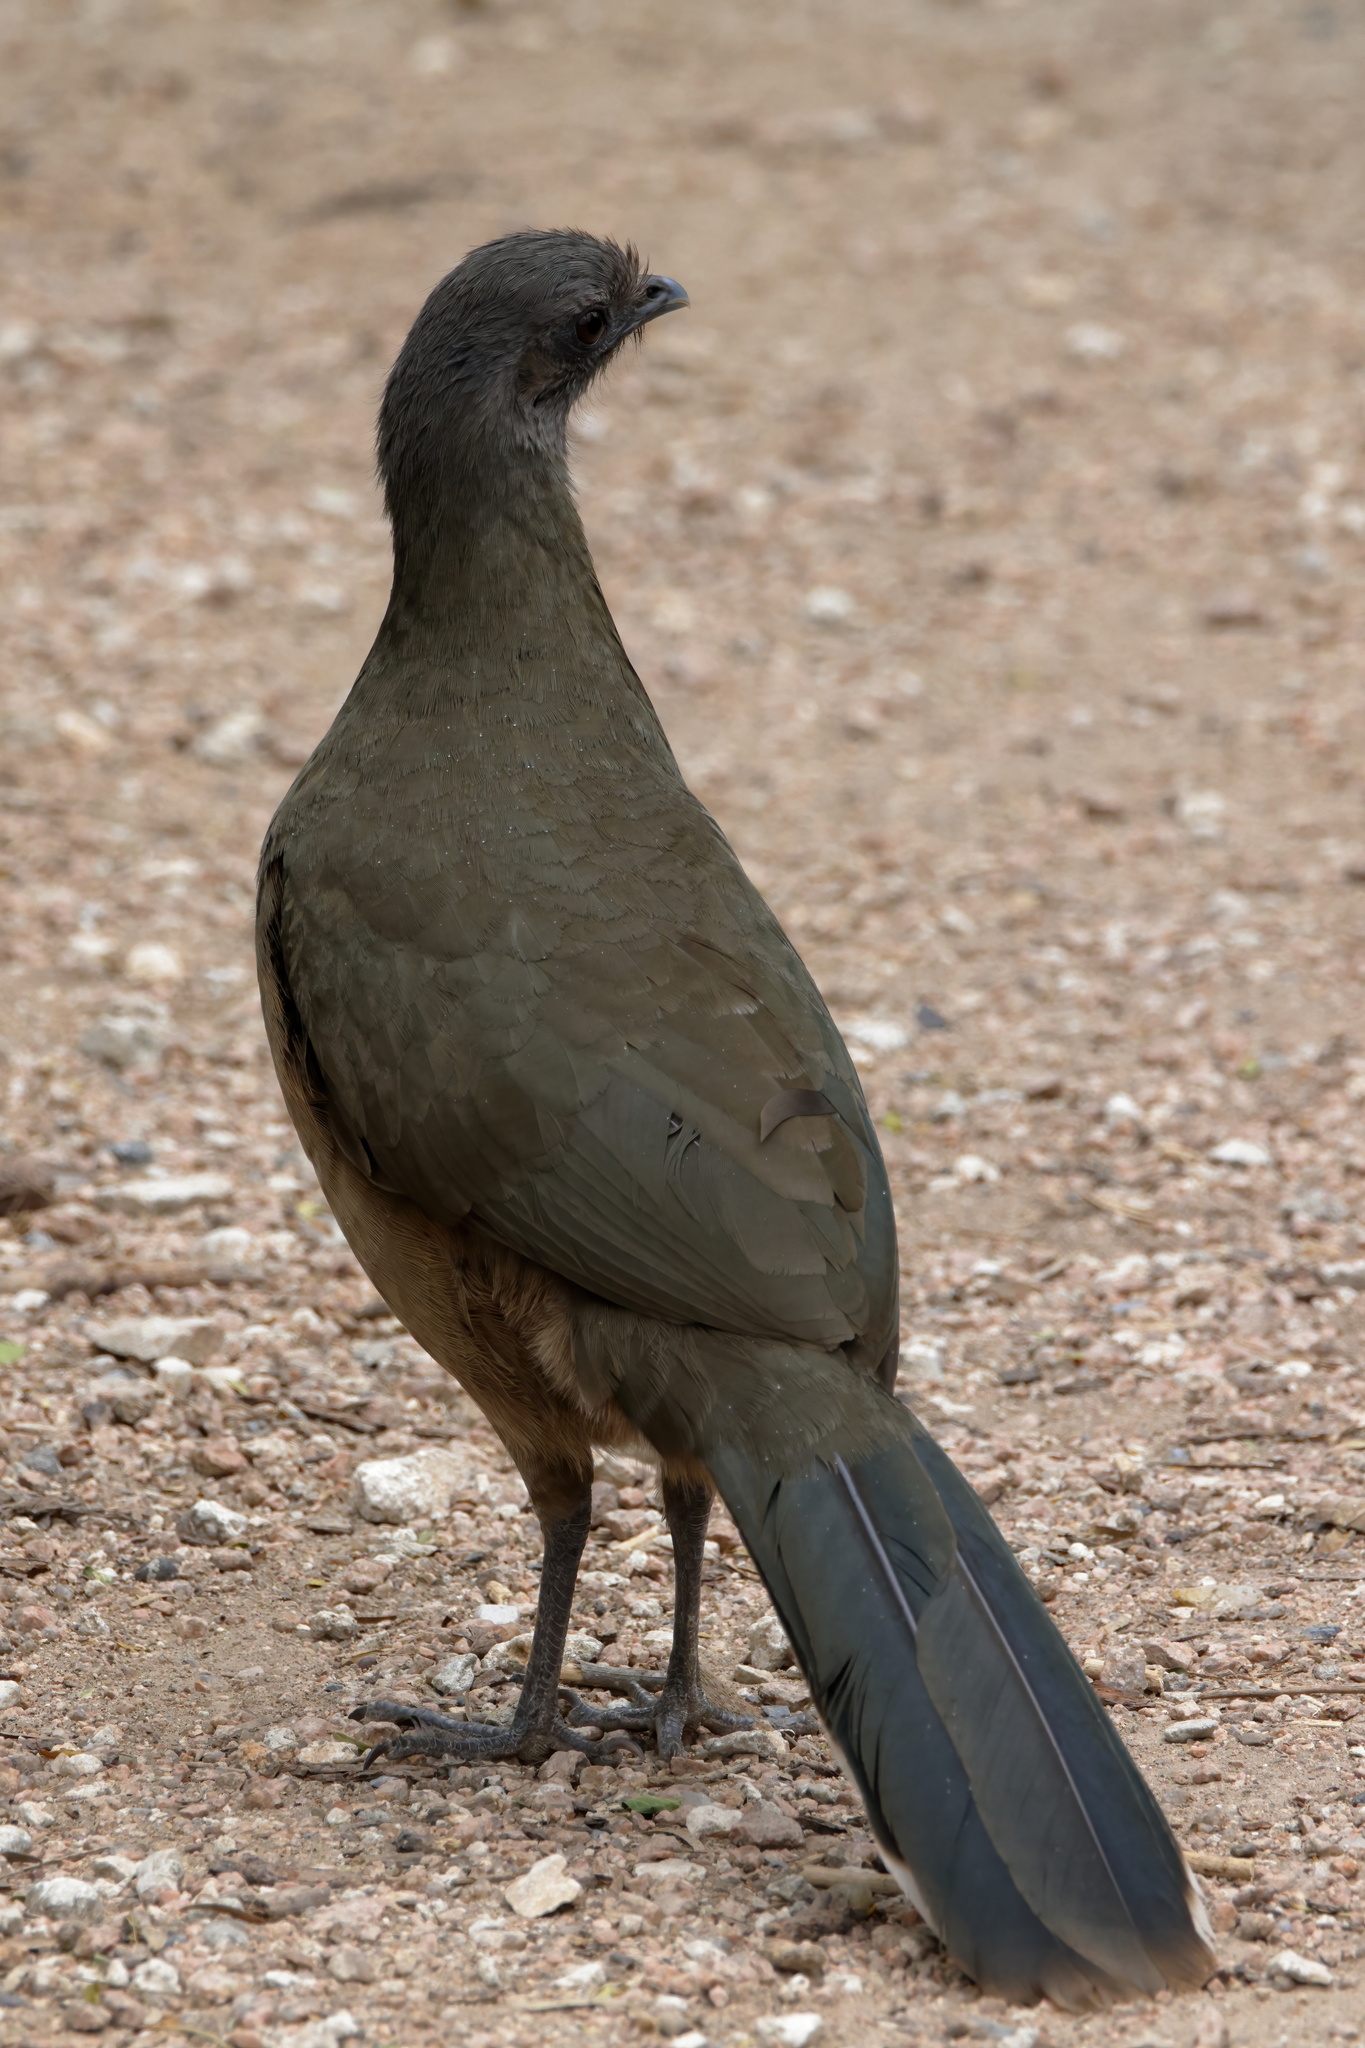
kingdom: Animalia
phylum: Chordata
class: Aves
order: Galliformes
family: Cracidae
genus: Ortalis
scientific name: Ortalis vetula
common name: Plain chachalaca
